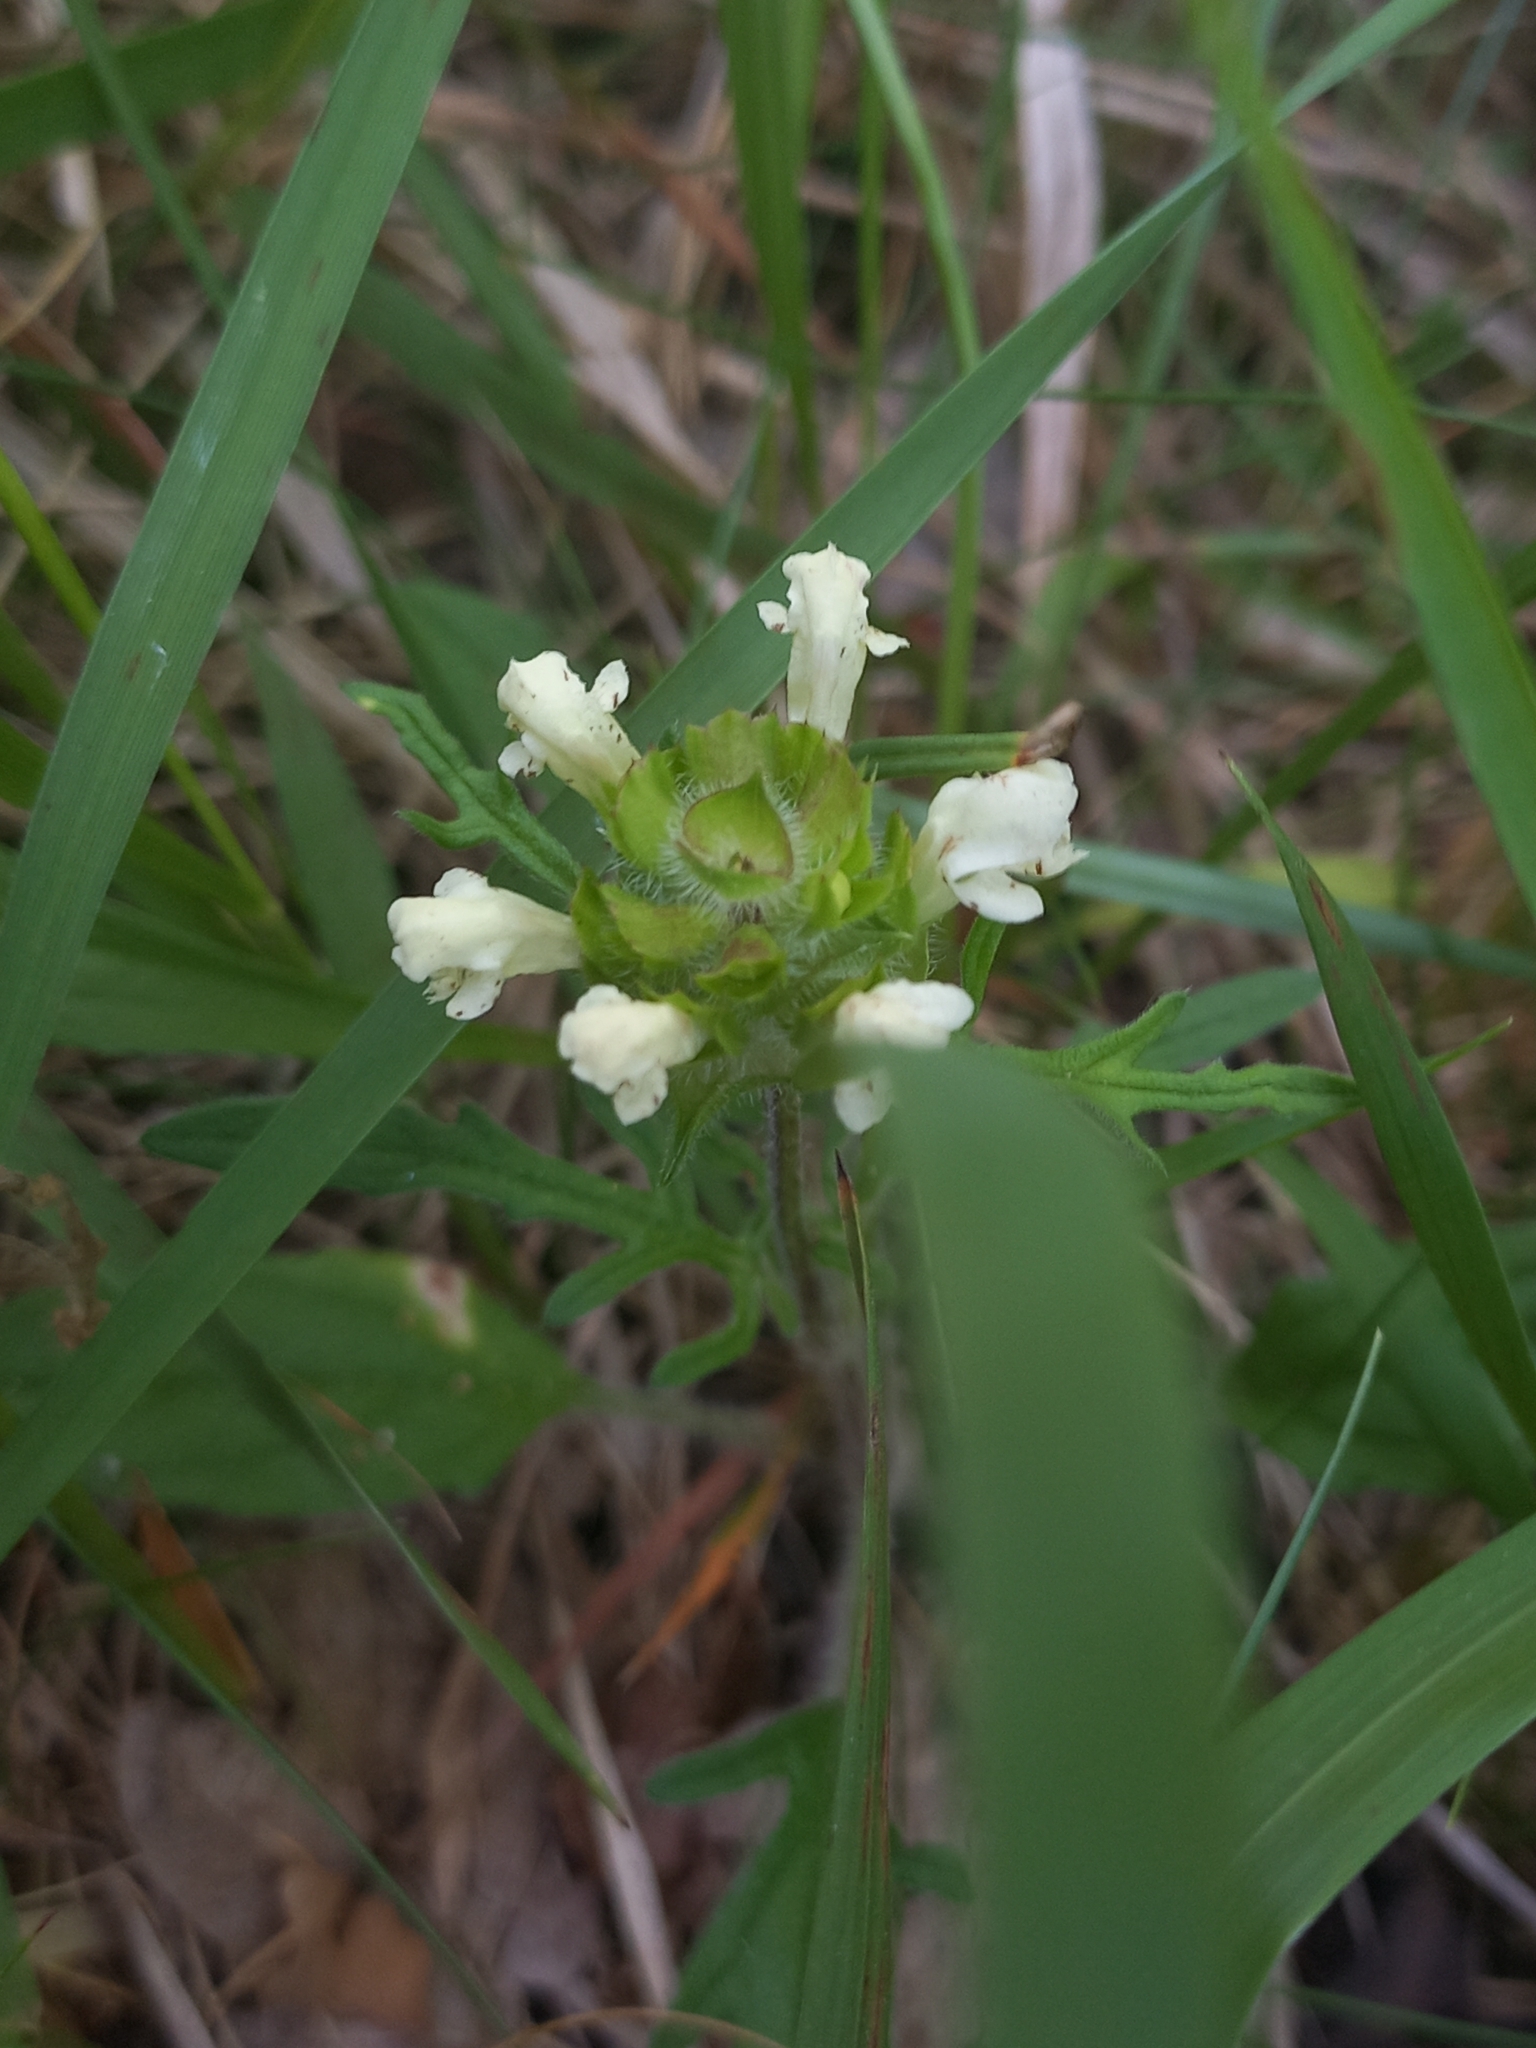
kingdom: Plantae
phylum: Tracheophyta
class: Magnoliopsida
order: Lamiales
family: Lamiaceae
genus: Prunella
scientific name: Prunella laciniata
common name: Cut-leaved selfheal
